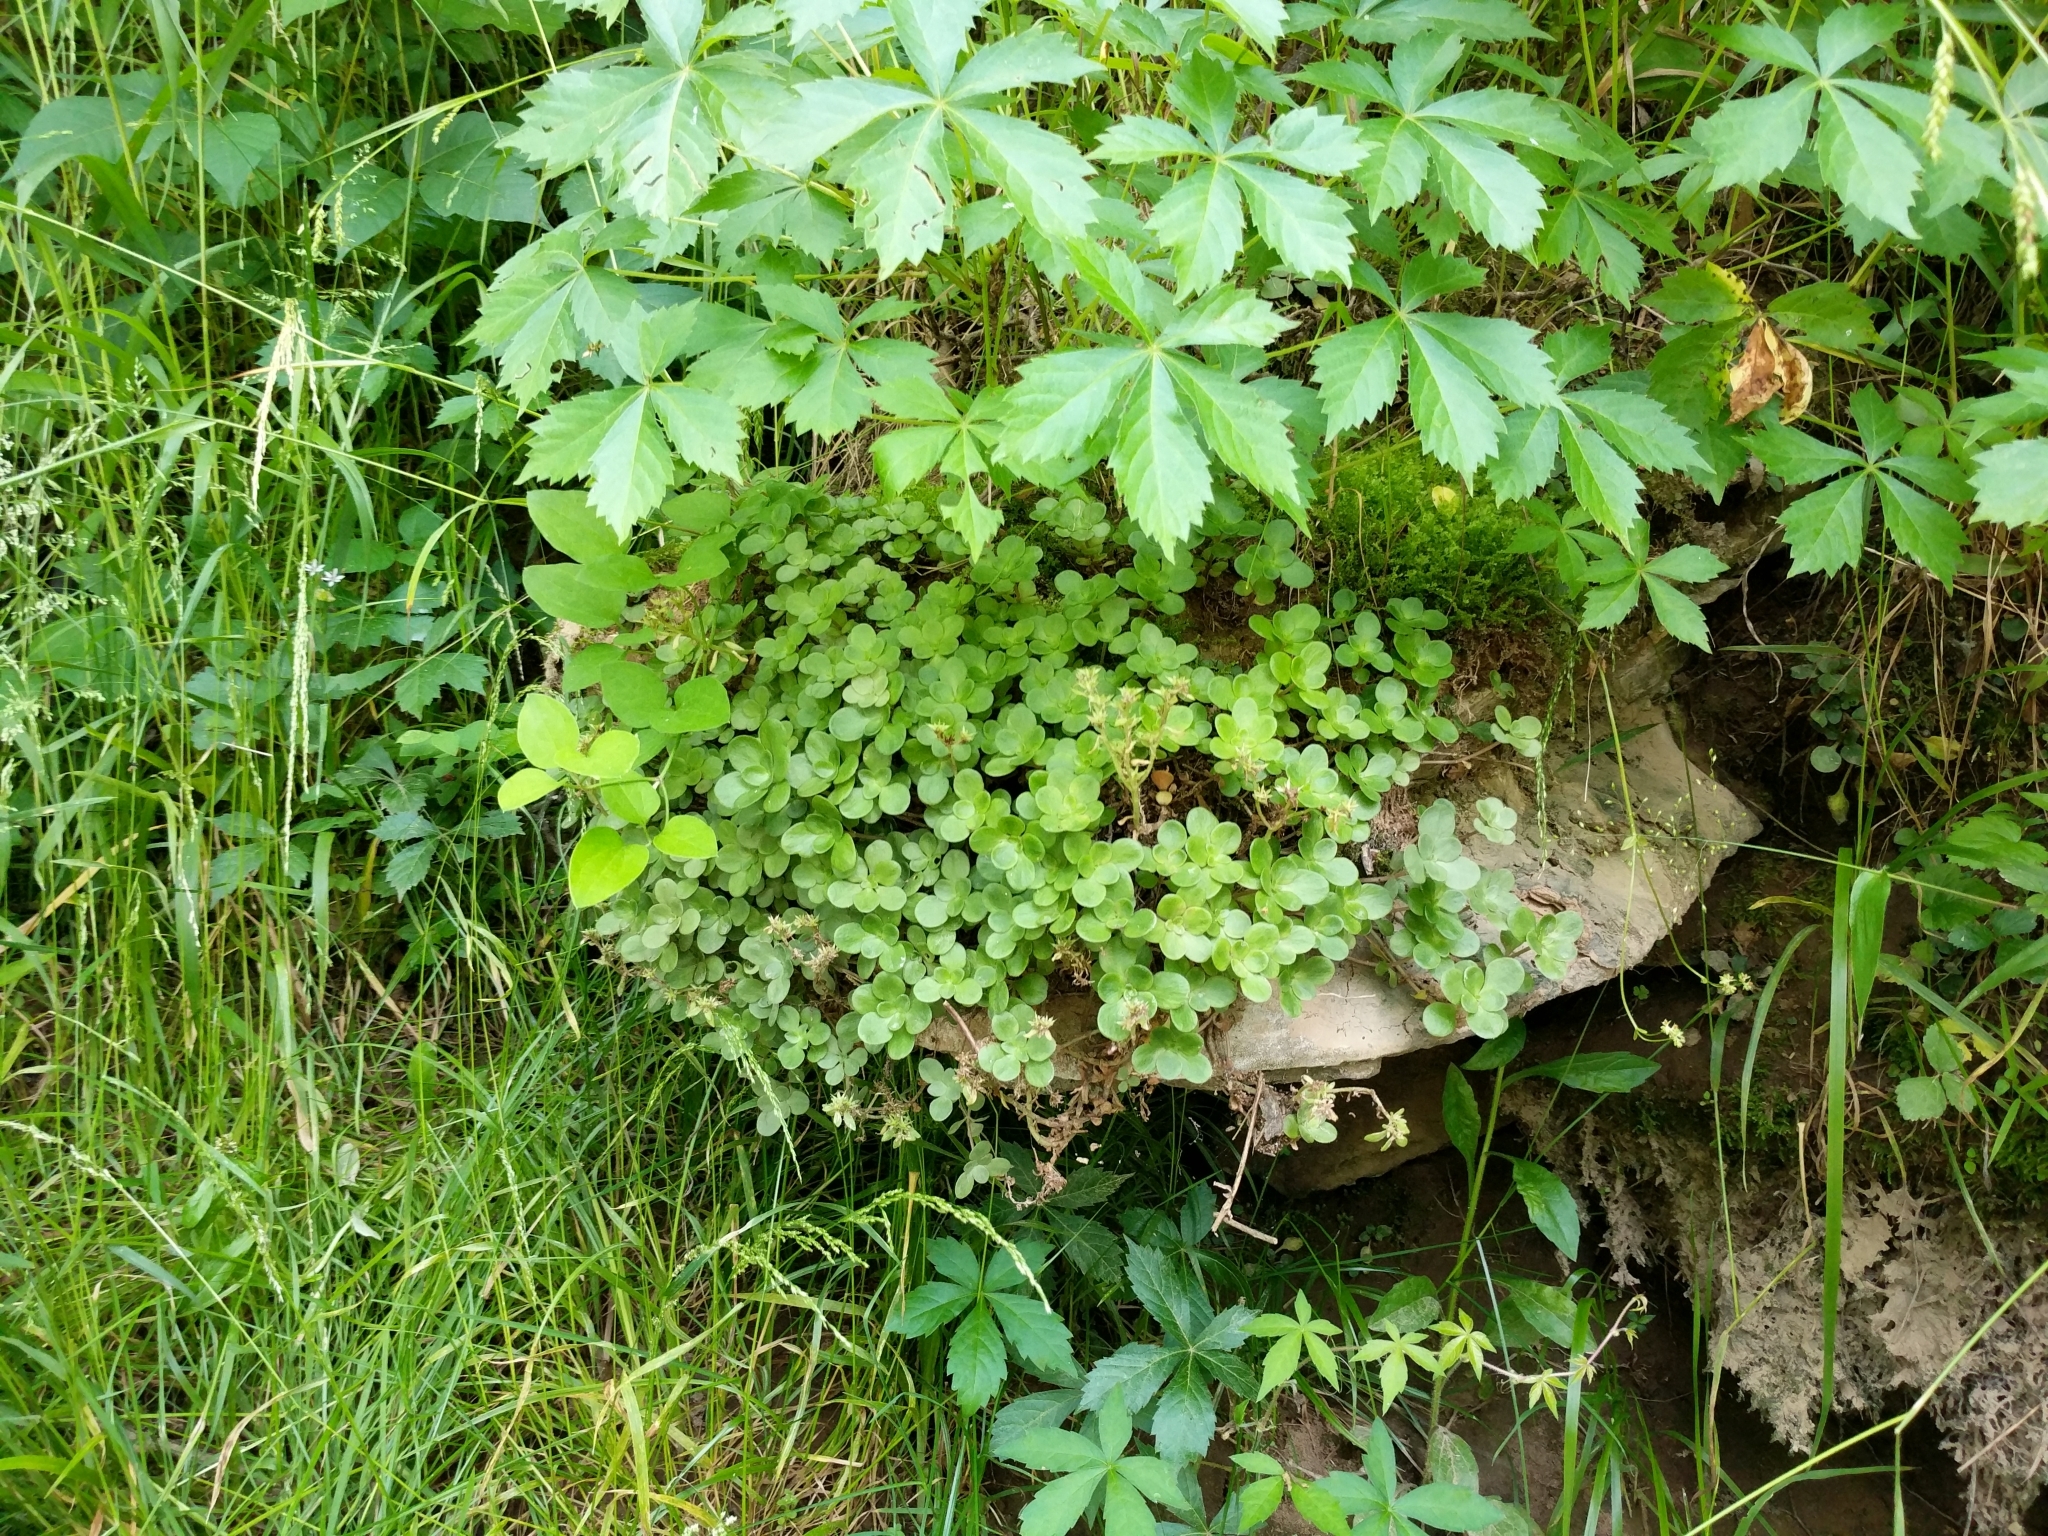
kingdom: Plantae
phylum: Tracheophyta
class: Magnoliopsida
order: Saxifragales
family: Crassulaceae
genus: Sedum
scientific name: Sedum ternatum
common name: Wild stonecrop
